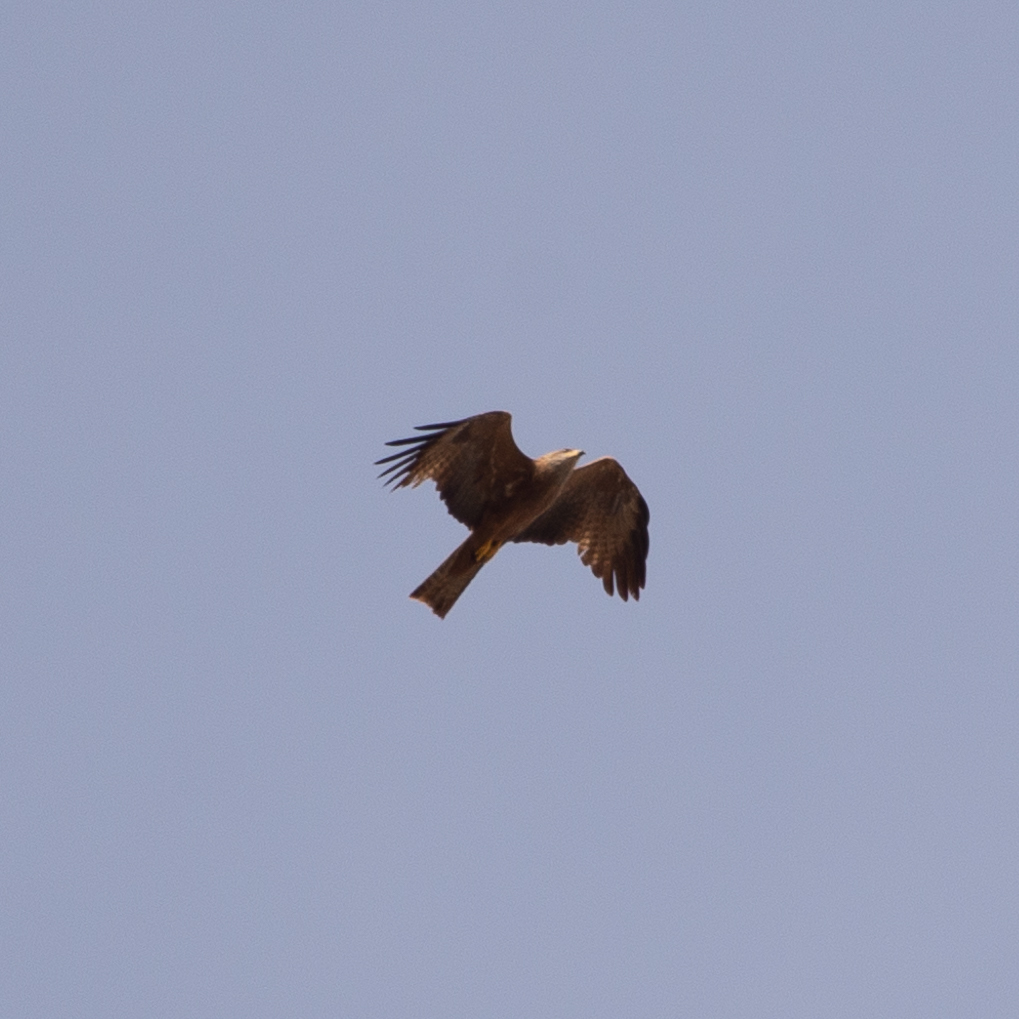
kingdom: Animalia
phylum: Chordata
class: Aves
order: Accipitriformes
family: Accipitridae
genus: Milvus
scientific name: Milvus migrans
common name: Black kite
